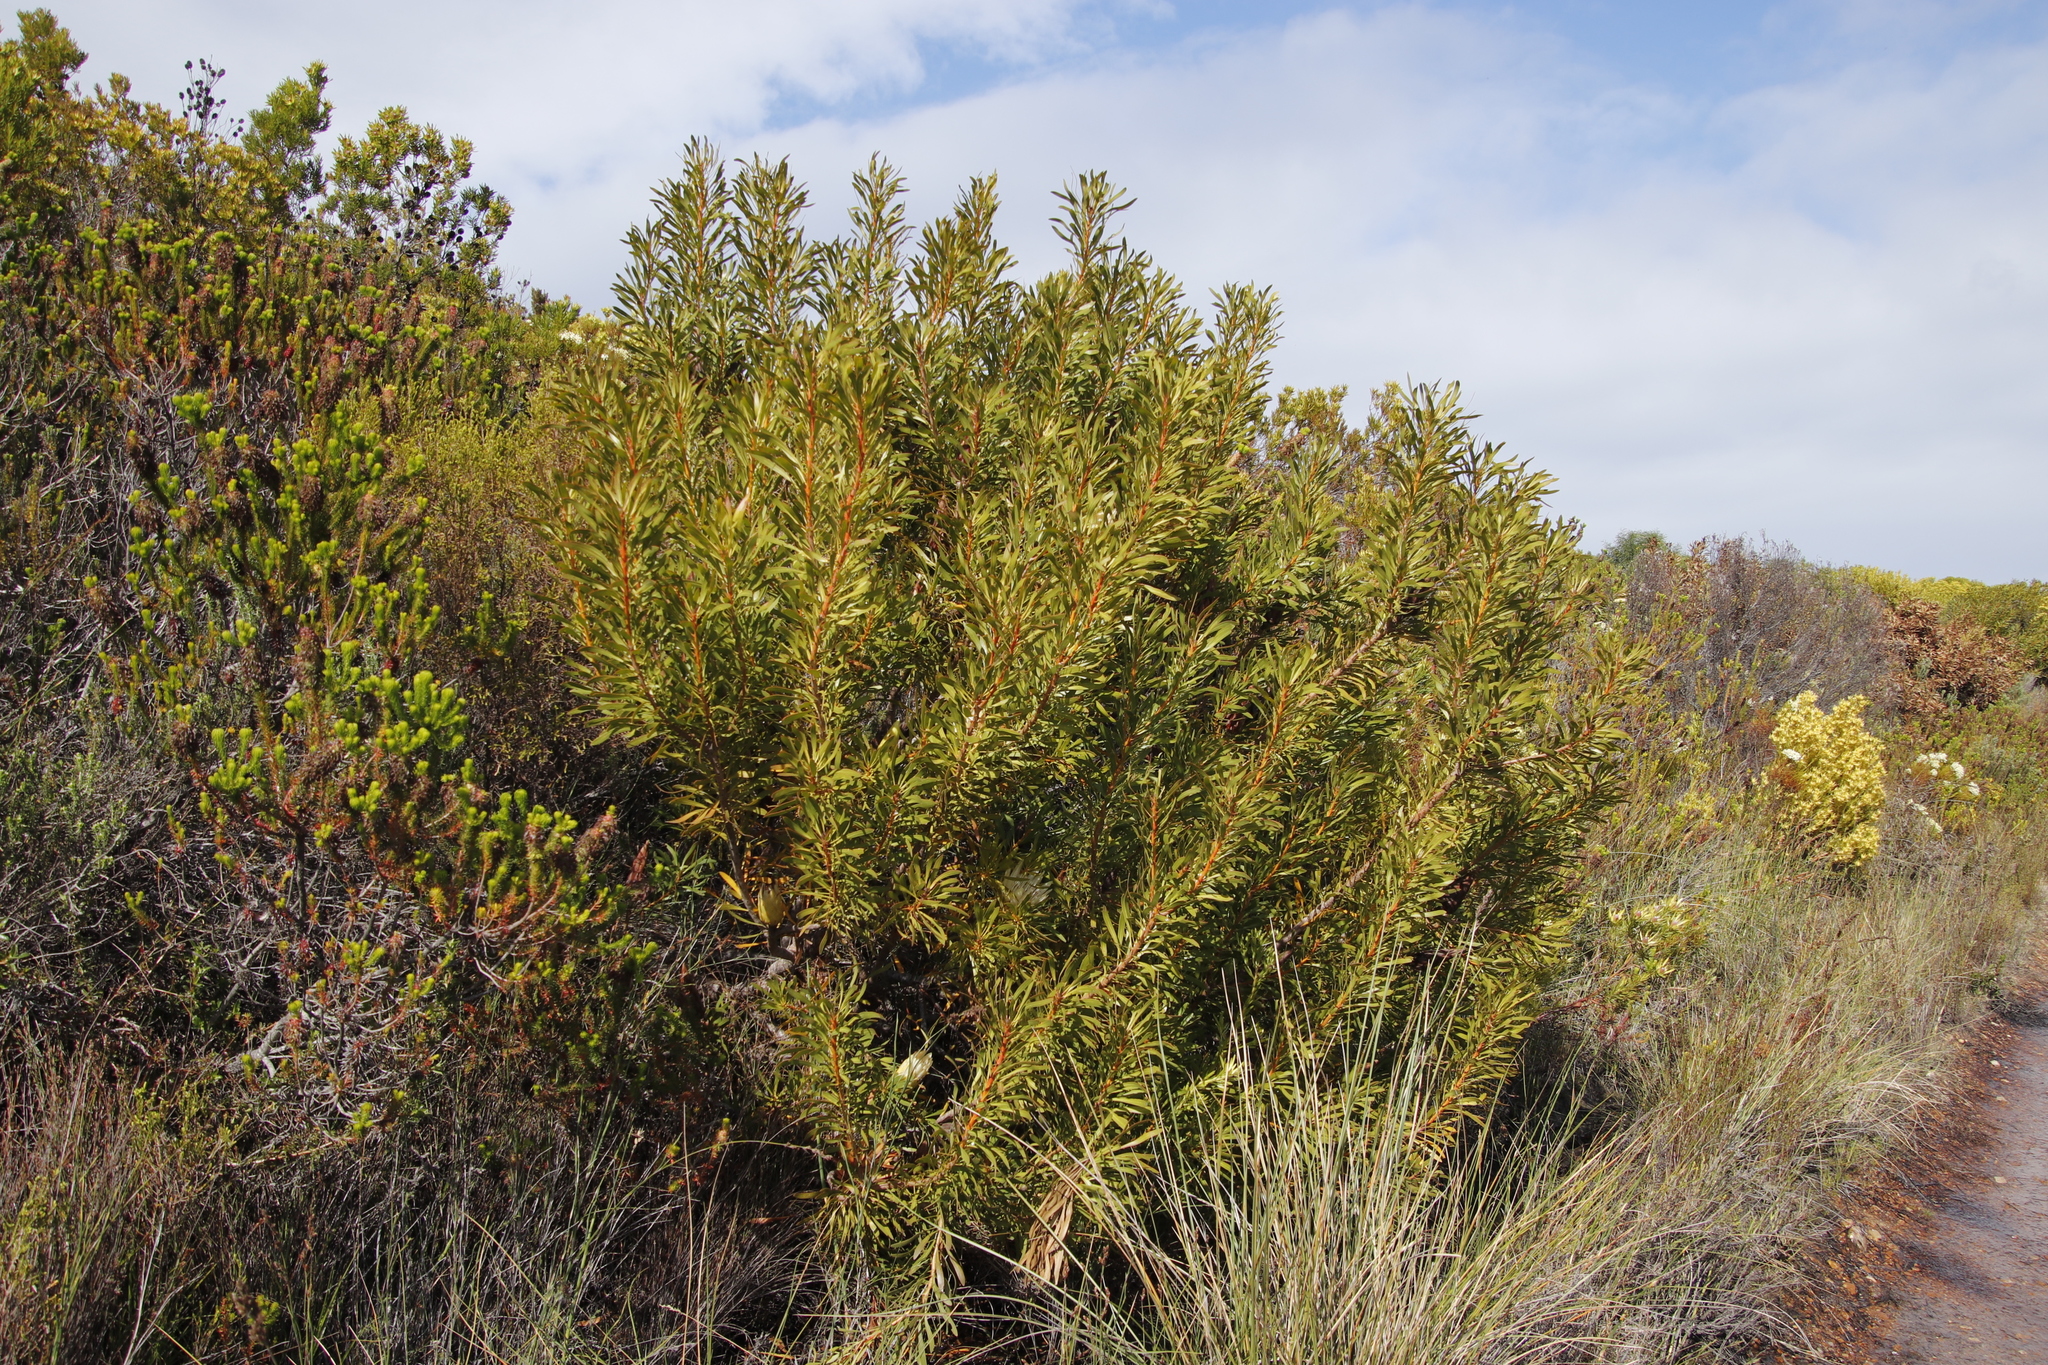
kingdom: Plantae
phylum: Tracheophyta
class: Magnoliopsida
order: Proteales
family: Proteaceae
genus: Protea
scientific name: Protea repens
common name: Sugarbush
